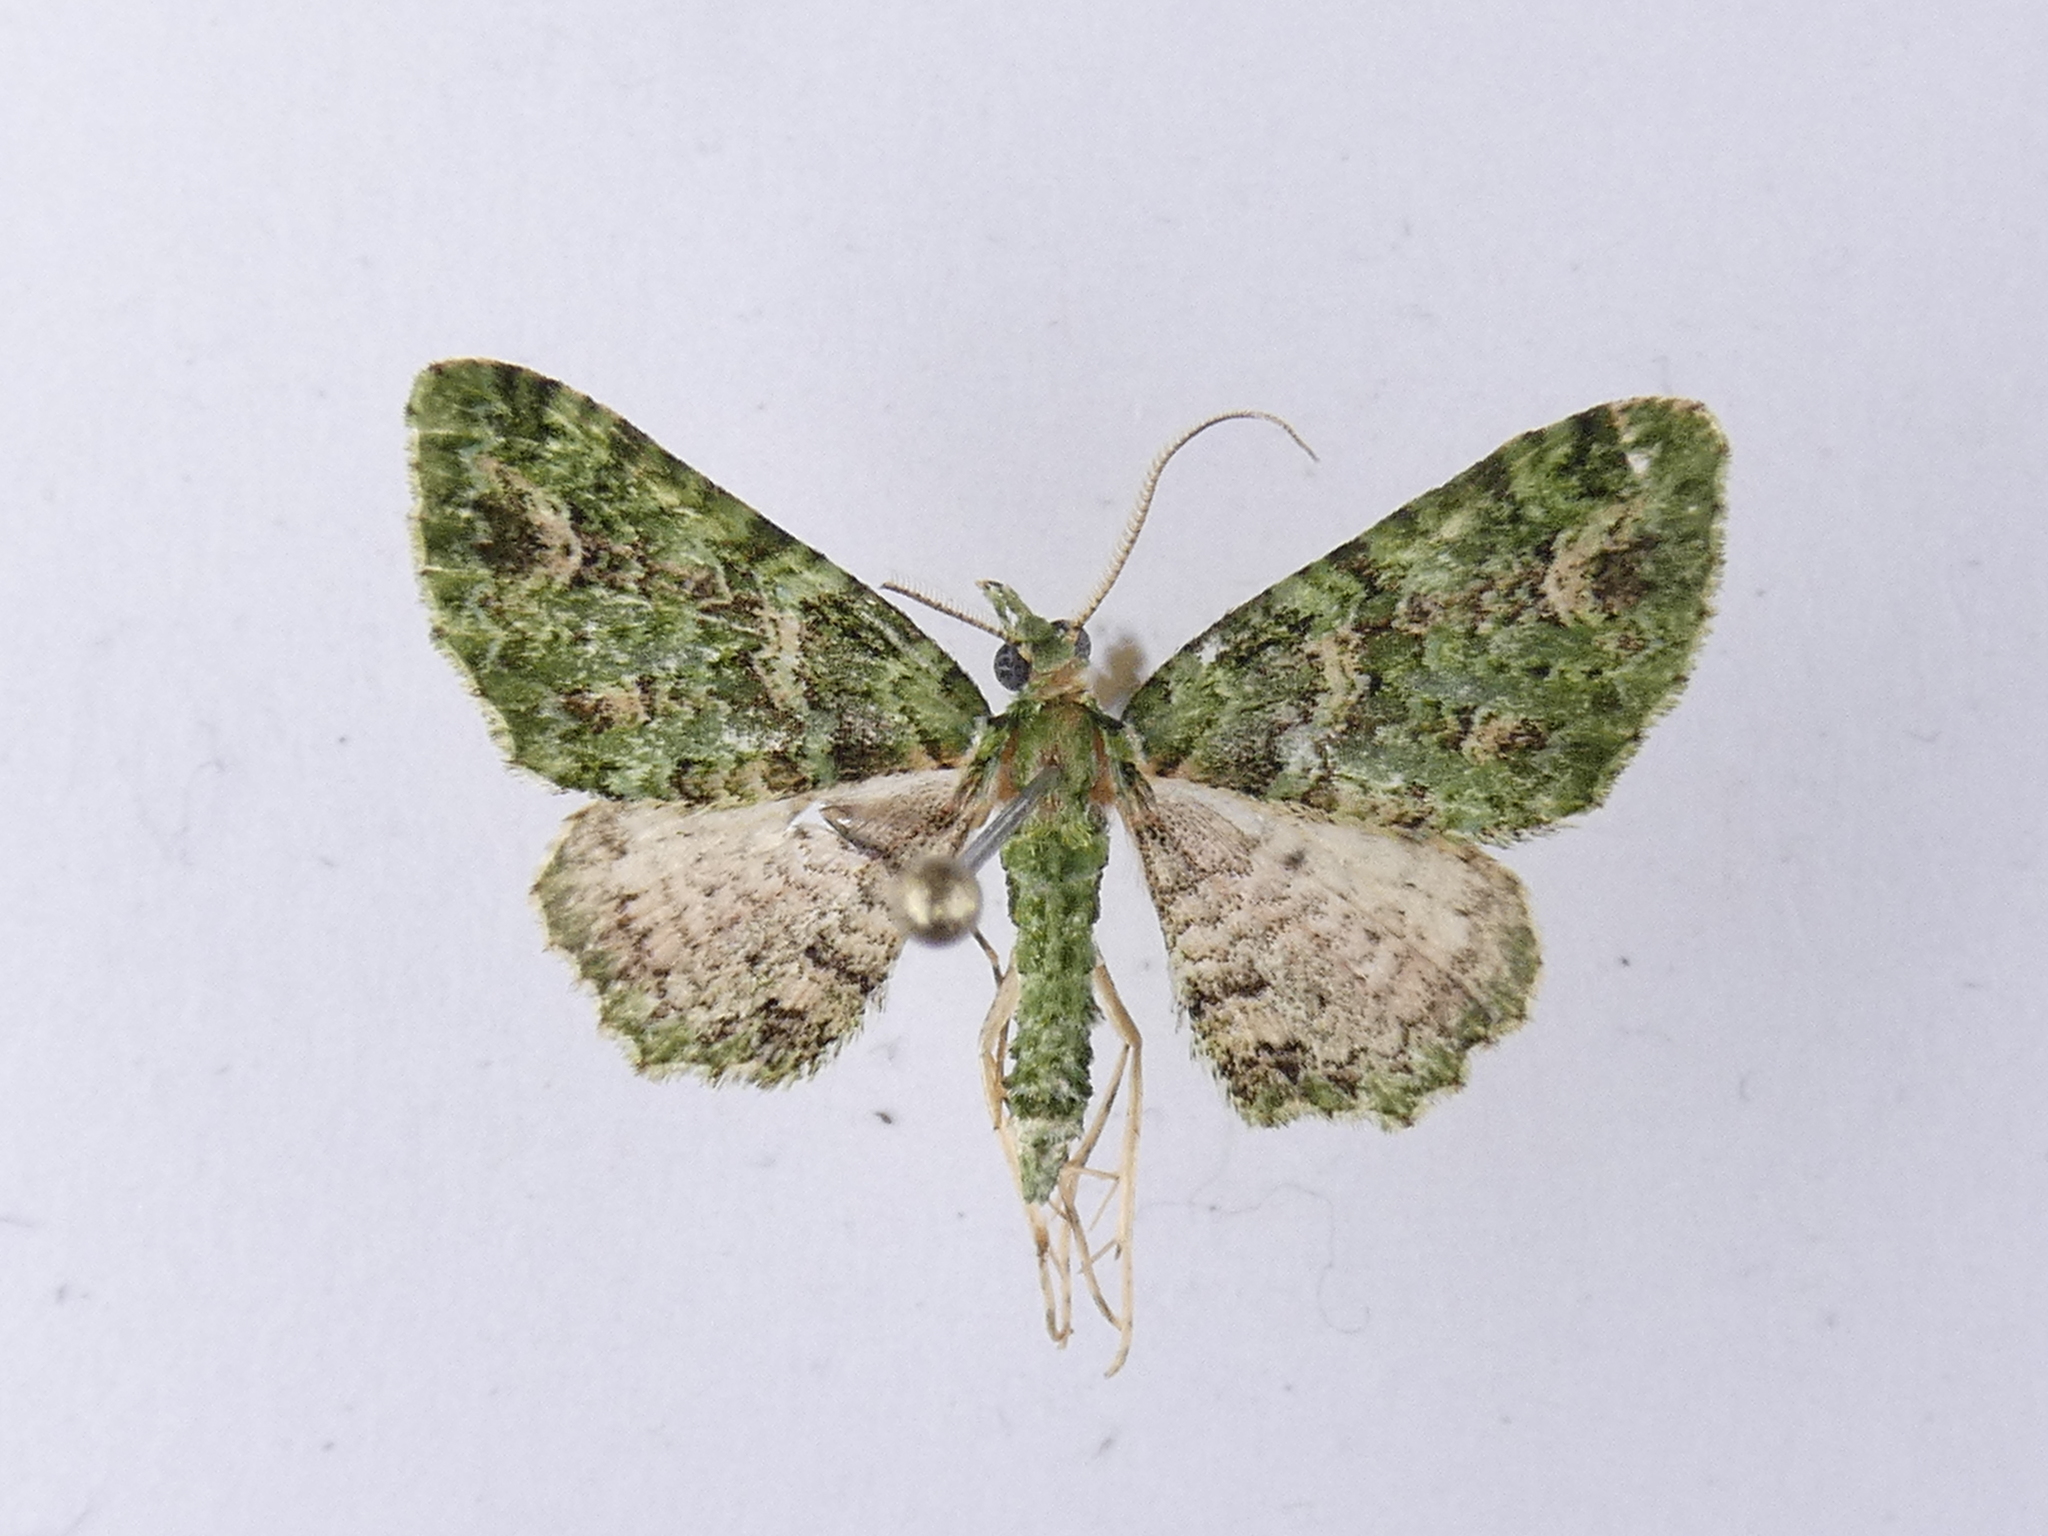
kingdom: Animalia
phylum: Arthropoda
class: Insecta
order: Lepidoptera
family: Geometridae
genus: Pasiphila
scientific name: Pasiphila muscosata
